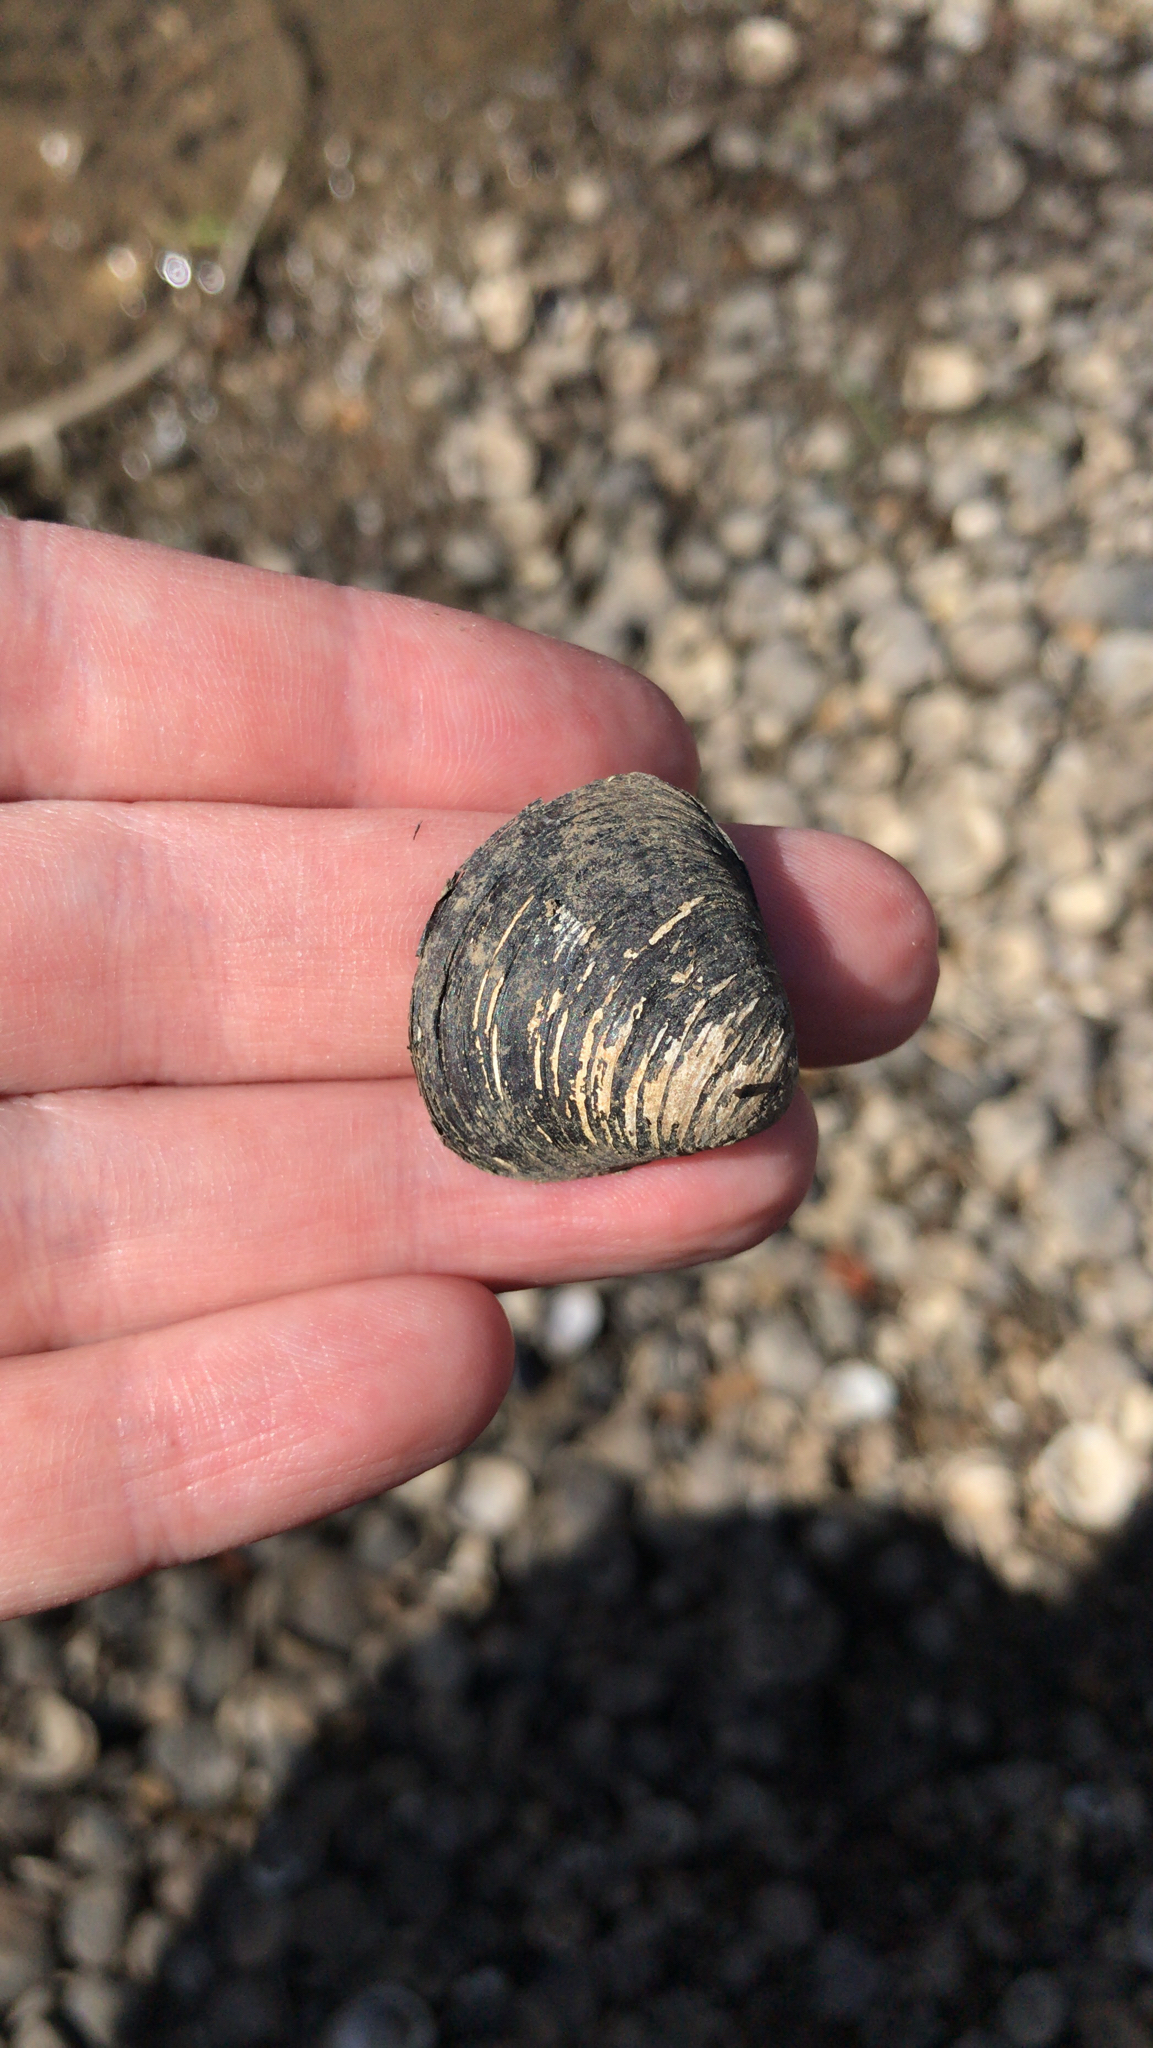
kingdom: Animalia
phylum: Mollusca
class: Bivalvia
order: Venerida
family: Cyrenidae
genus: Corbicula
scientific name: Corbicula fluminea
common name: Asian clam
